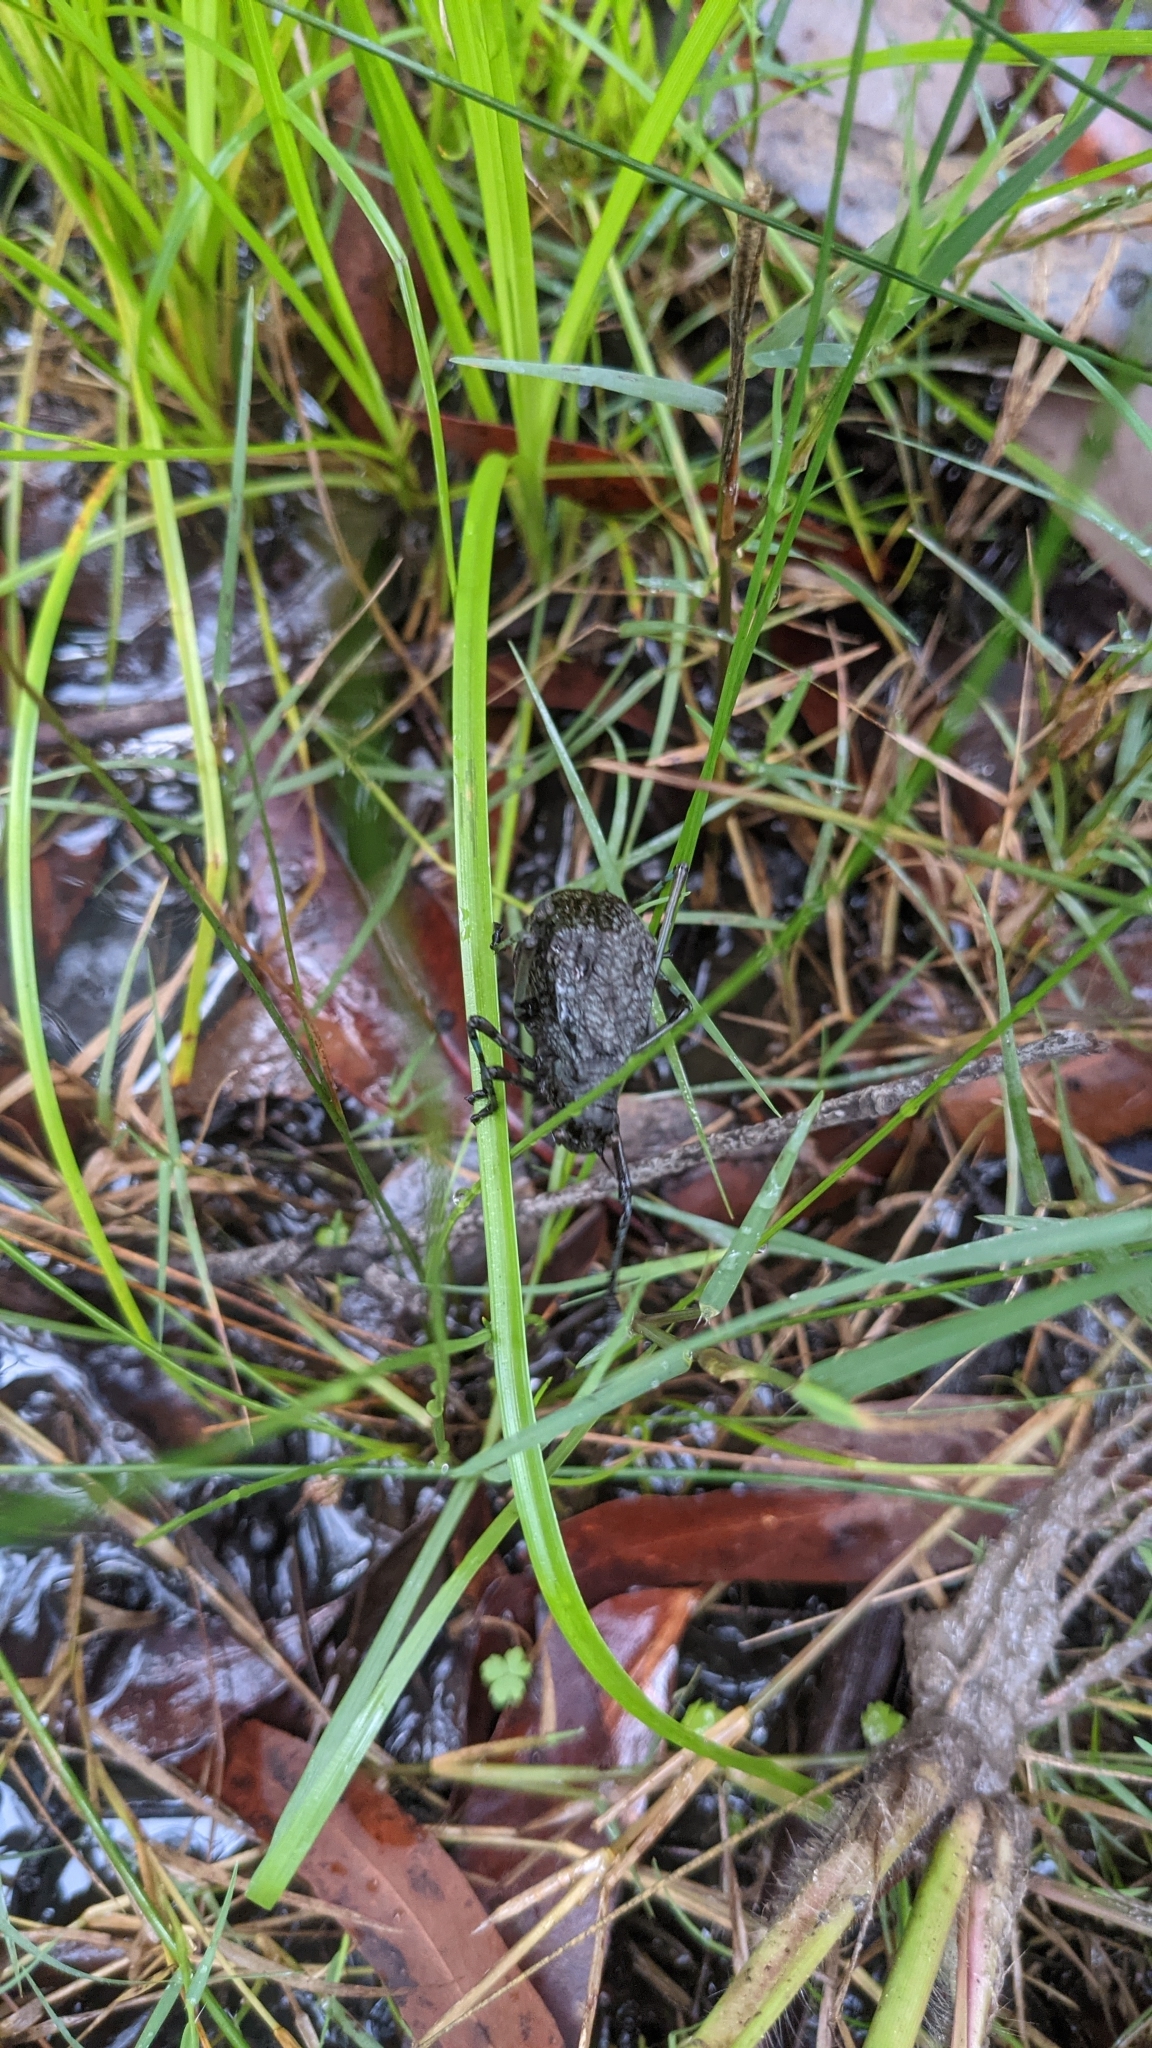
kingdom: Animalia
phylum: Arthropoda
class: Insecta
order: Orthoptera
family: Tettigoniidae
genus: Acripeza
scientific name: Acripeza reticulata
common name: Mountain katydid
